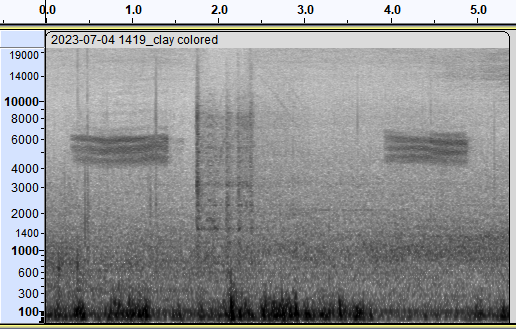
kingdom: Animalia
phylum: Chordata
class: Aves
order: Passeriformes
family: Passerellidae
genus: Spizella
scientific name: Spizella pallida
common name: Clay-colored sparrow
